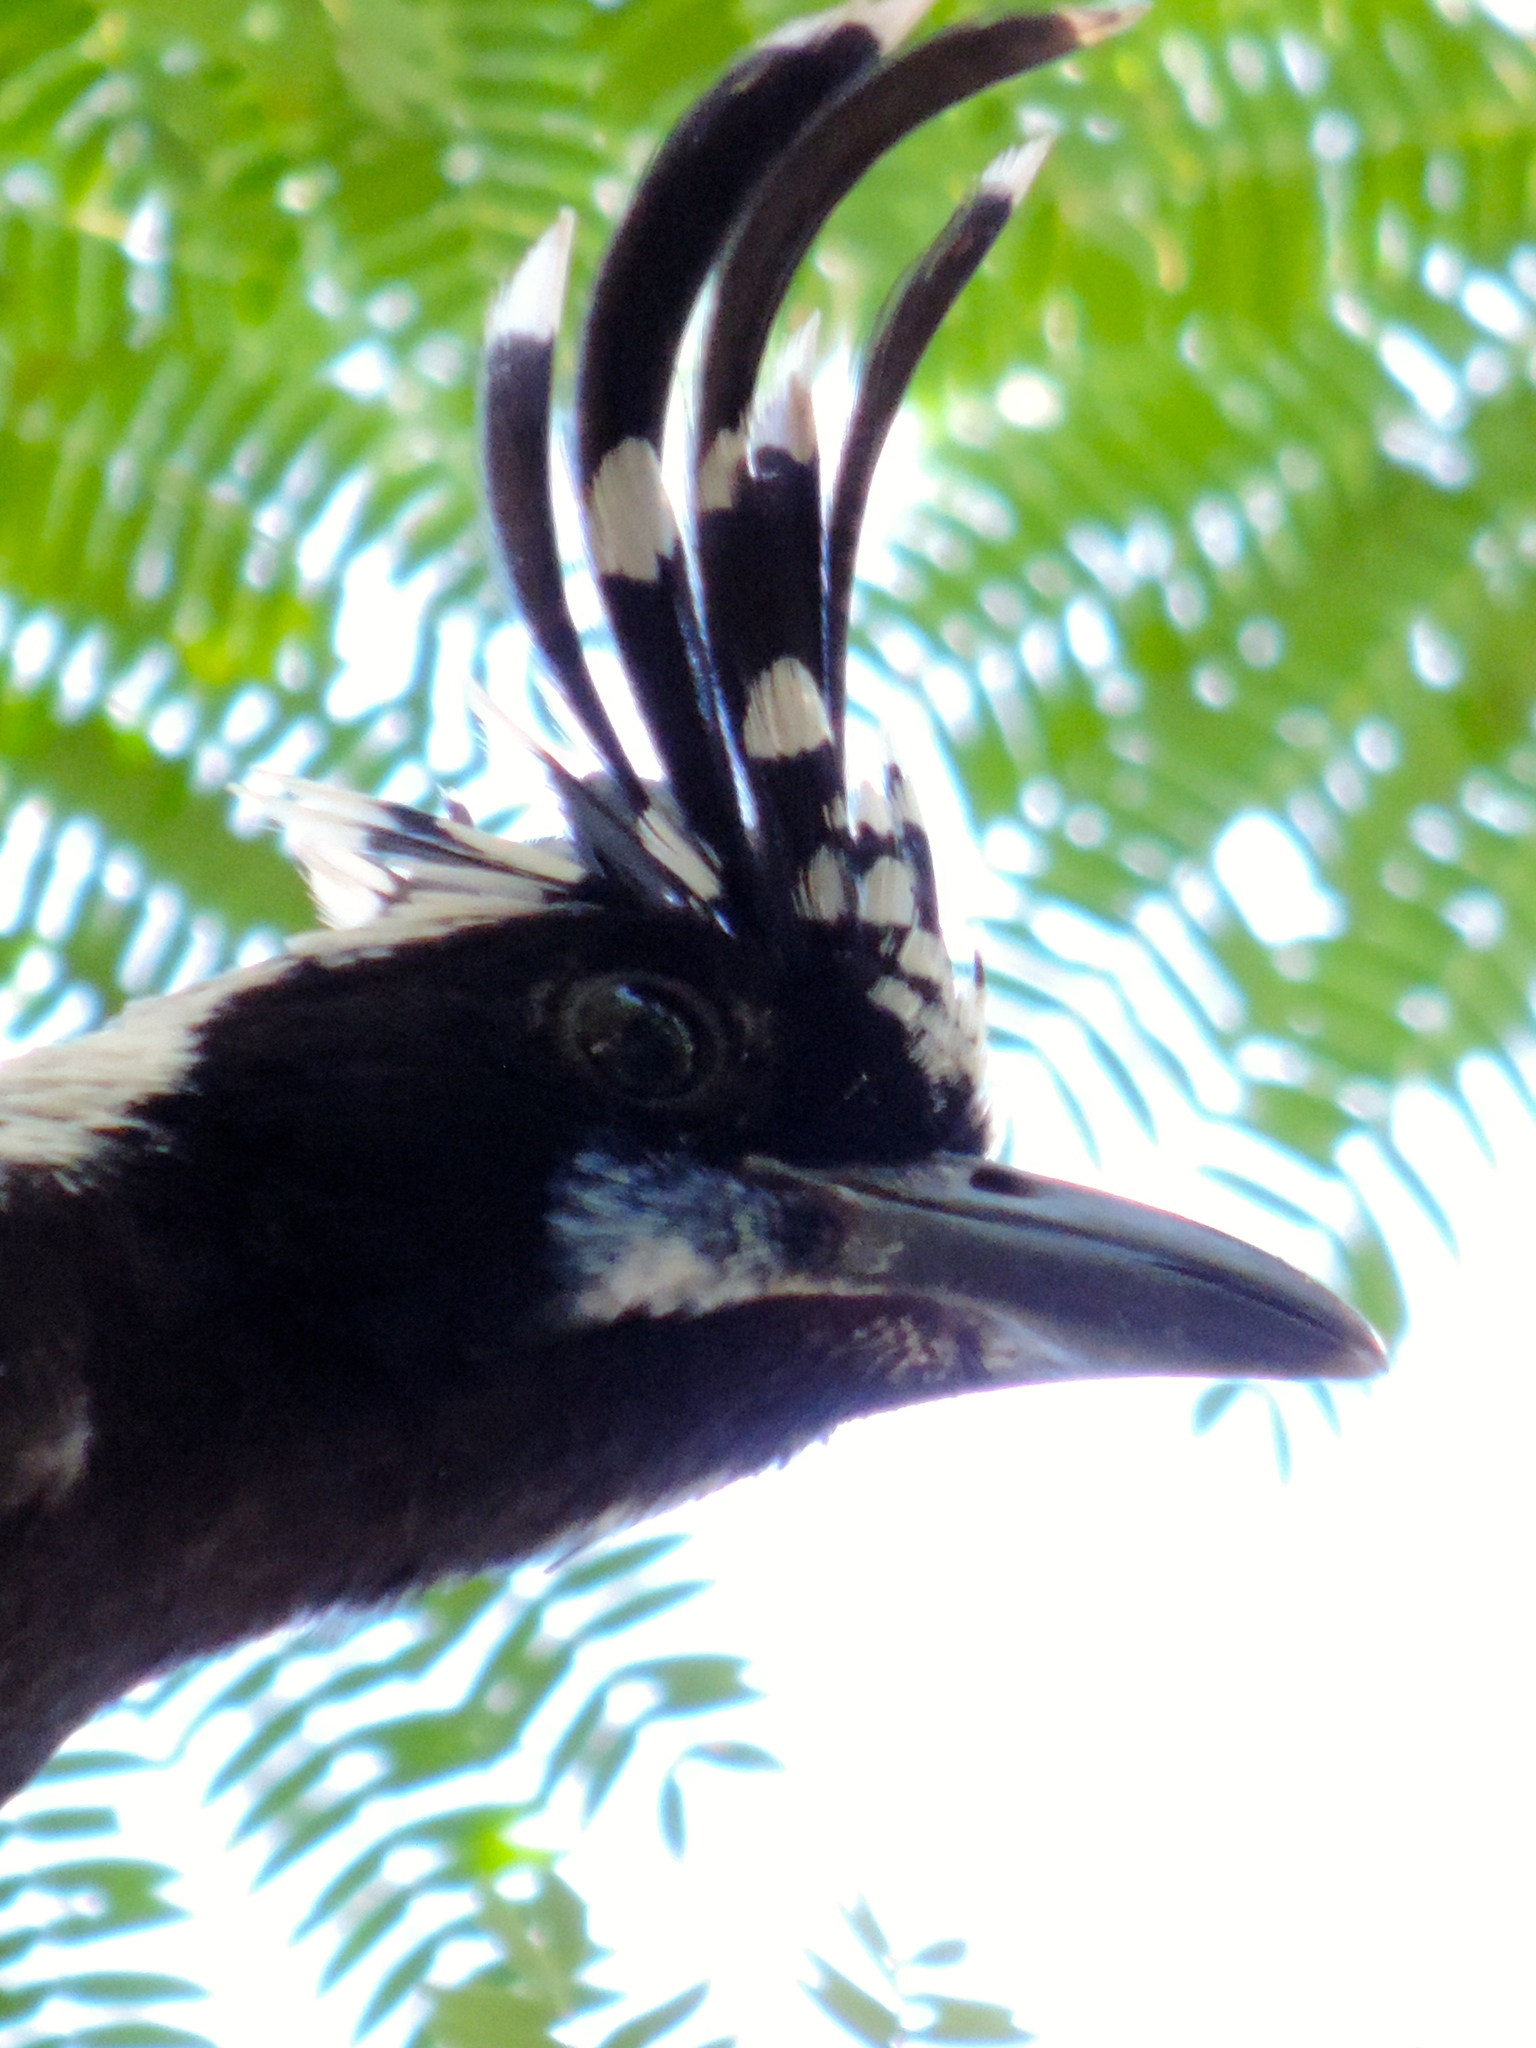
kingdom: Animalia
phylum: Chordata
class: Aves
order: Passeriformes
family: Corvidae
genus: Calocitta
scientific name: Calocitta colliei
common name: Black-throated magpie-jay
